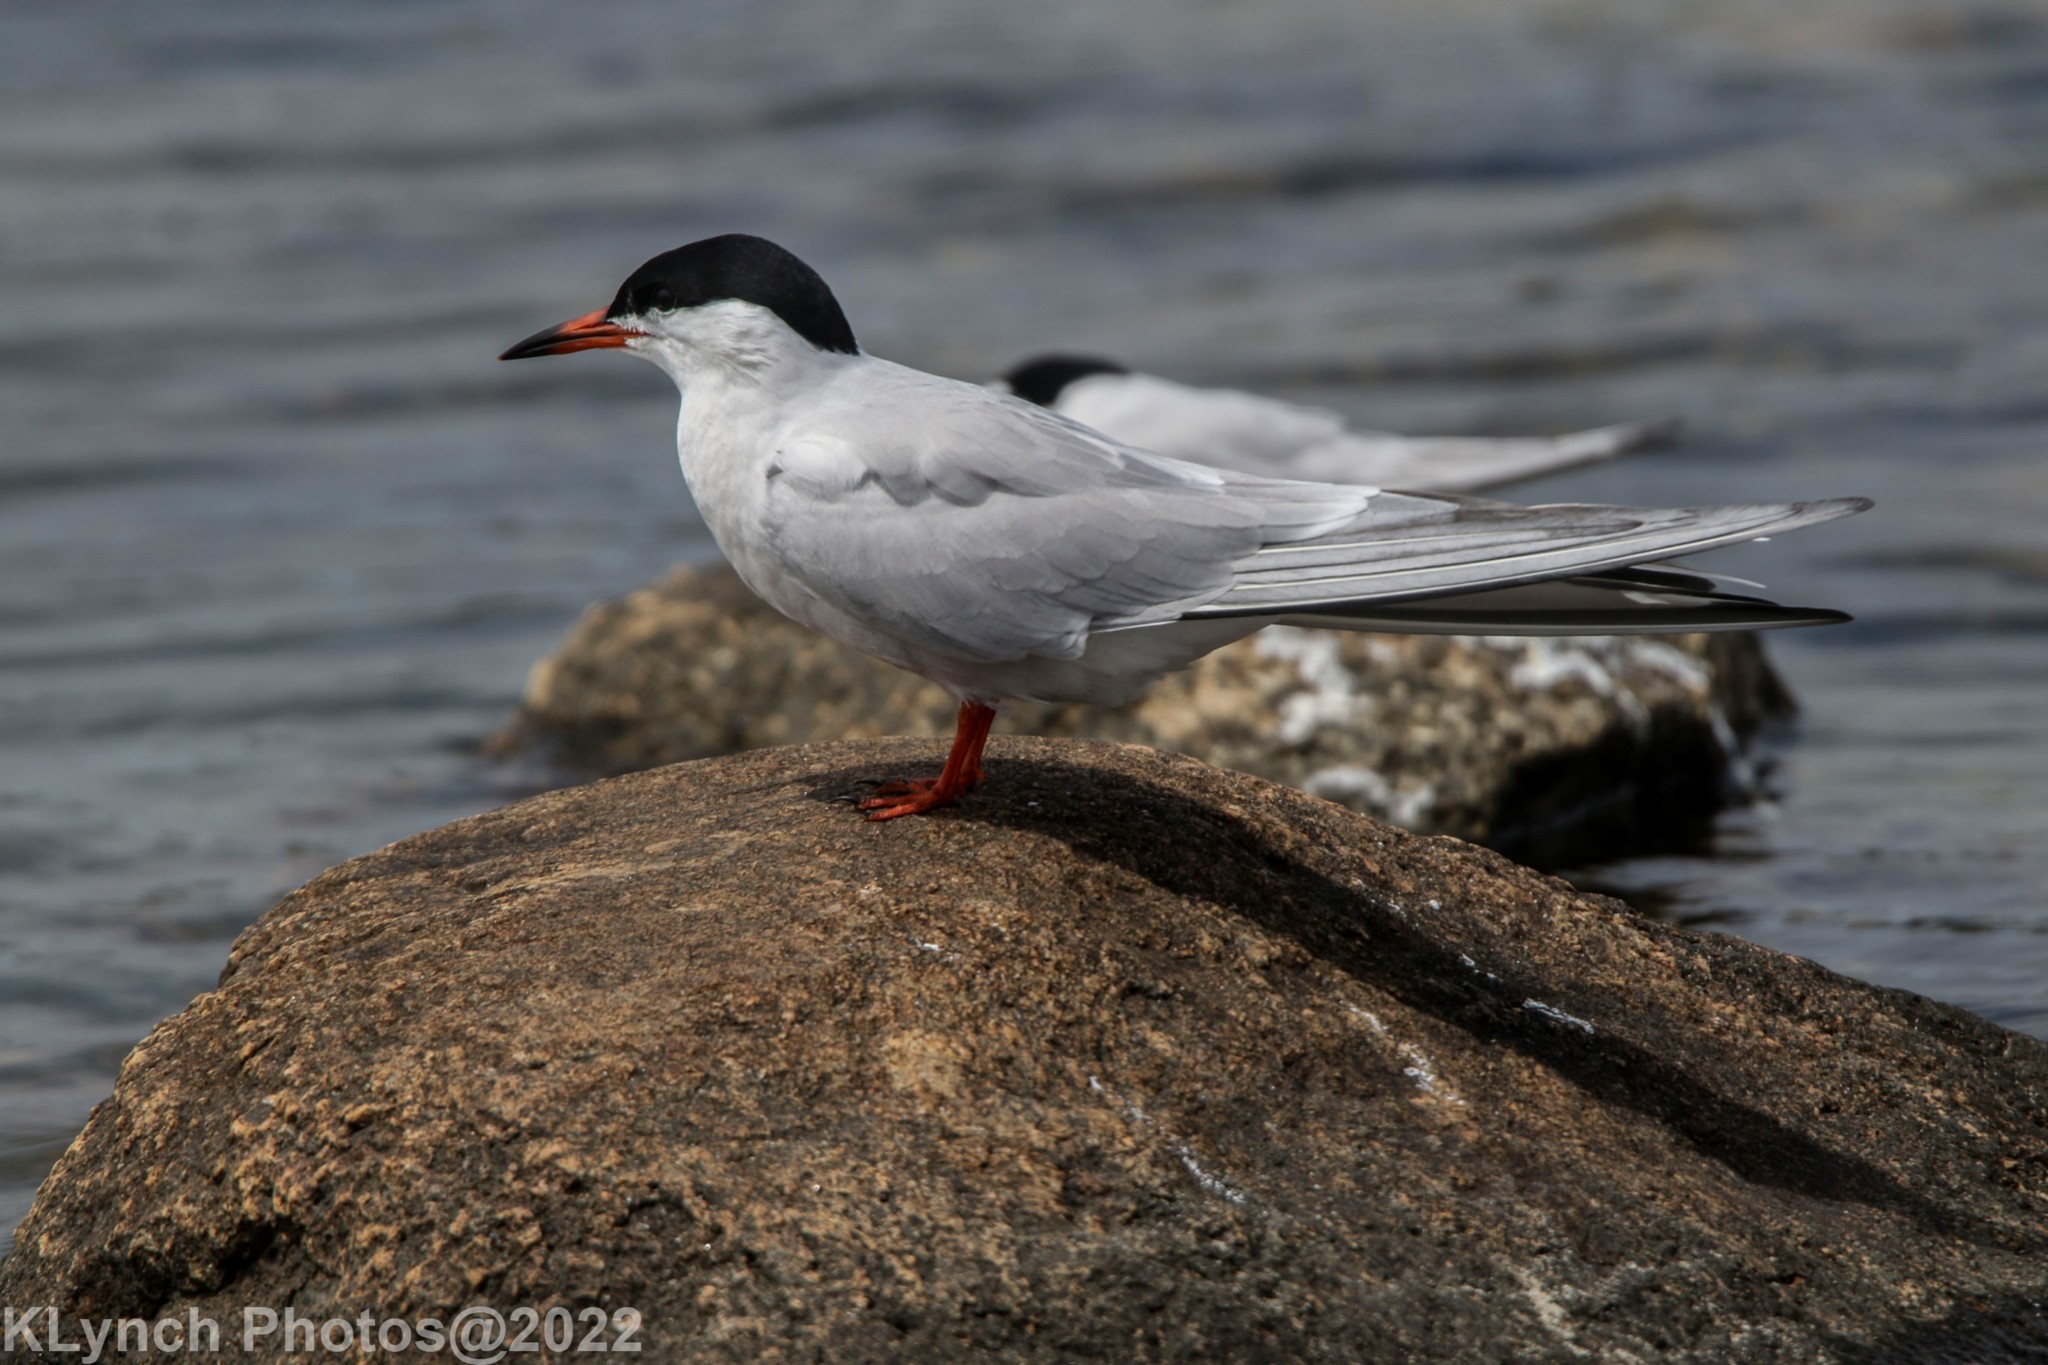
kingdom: Animalia
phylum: Chordata
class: Aves
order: Charadriiformes
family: Laridae
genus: Sterna
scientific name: Sterna hirundo
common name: Common tern
